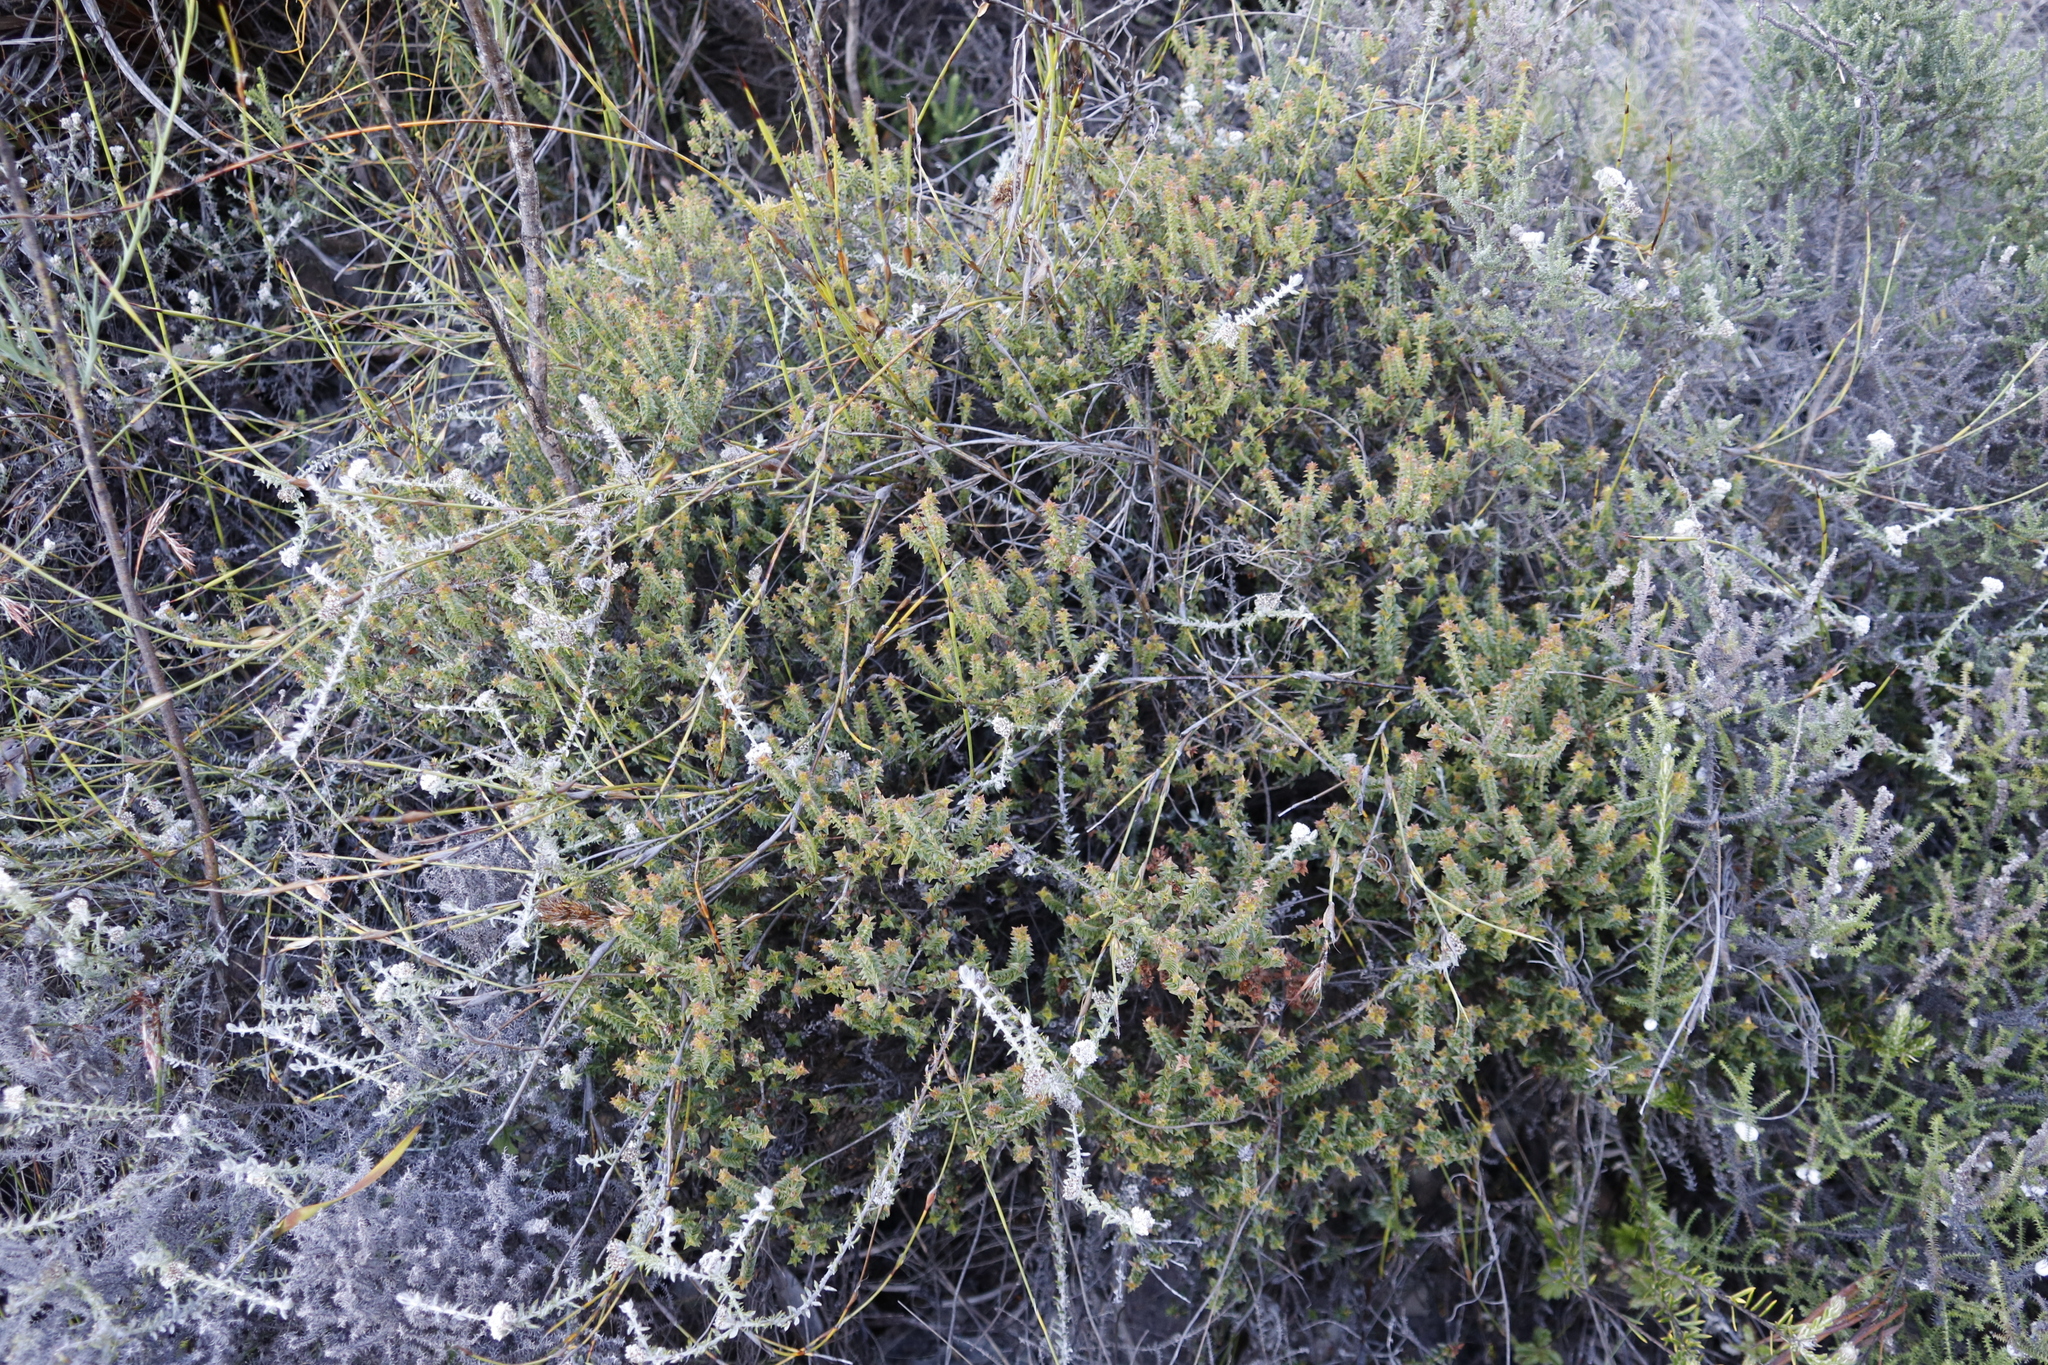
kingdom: Plantae
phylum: Tracheophyta
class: Magnoliopsida
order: Myrtales
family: Penaeaceae
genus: Penaea
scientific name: Penaea mucronata
